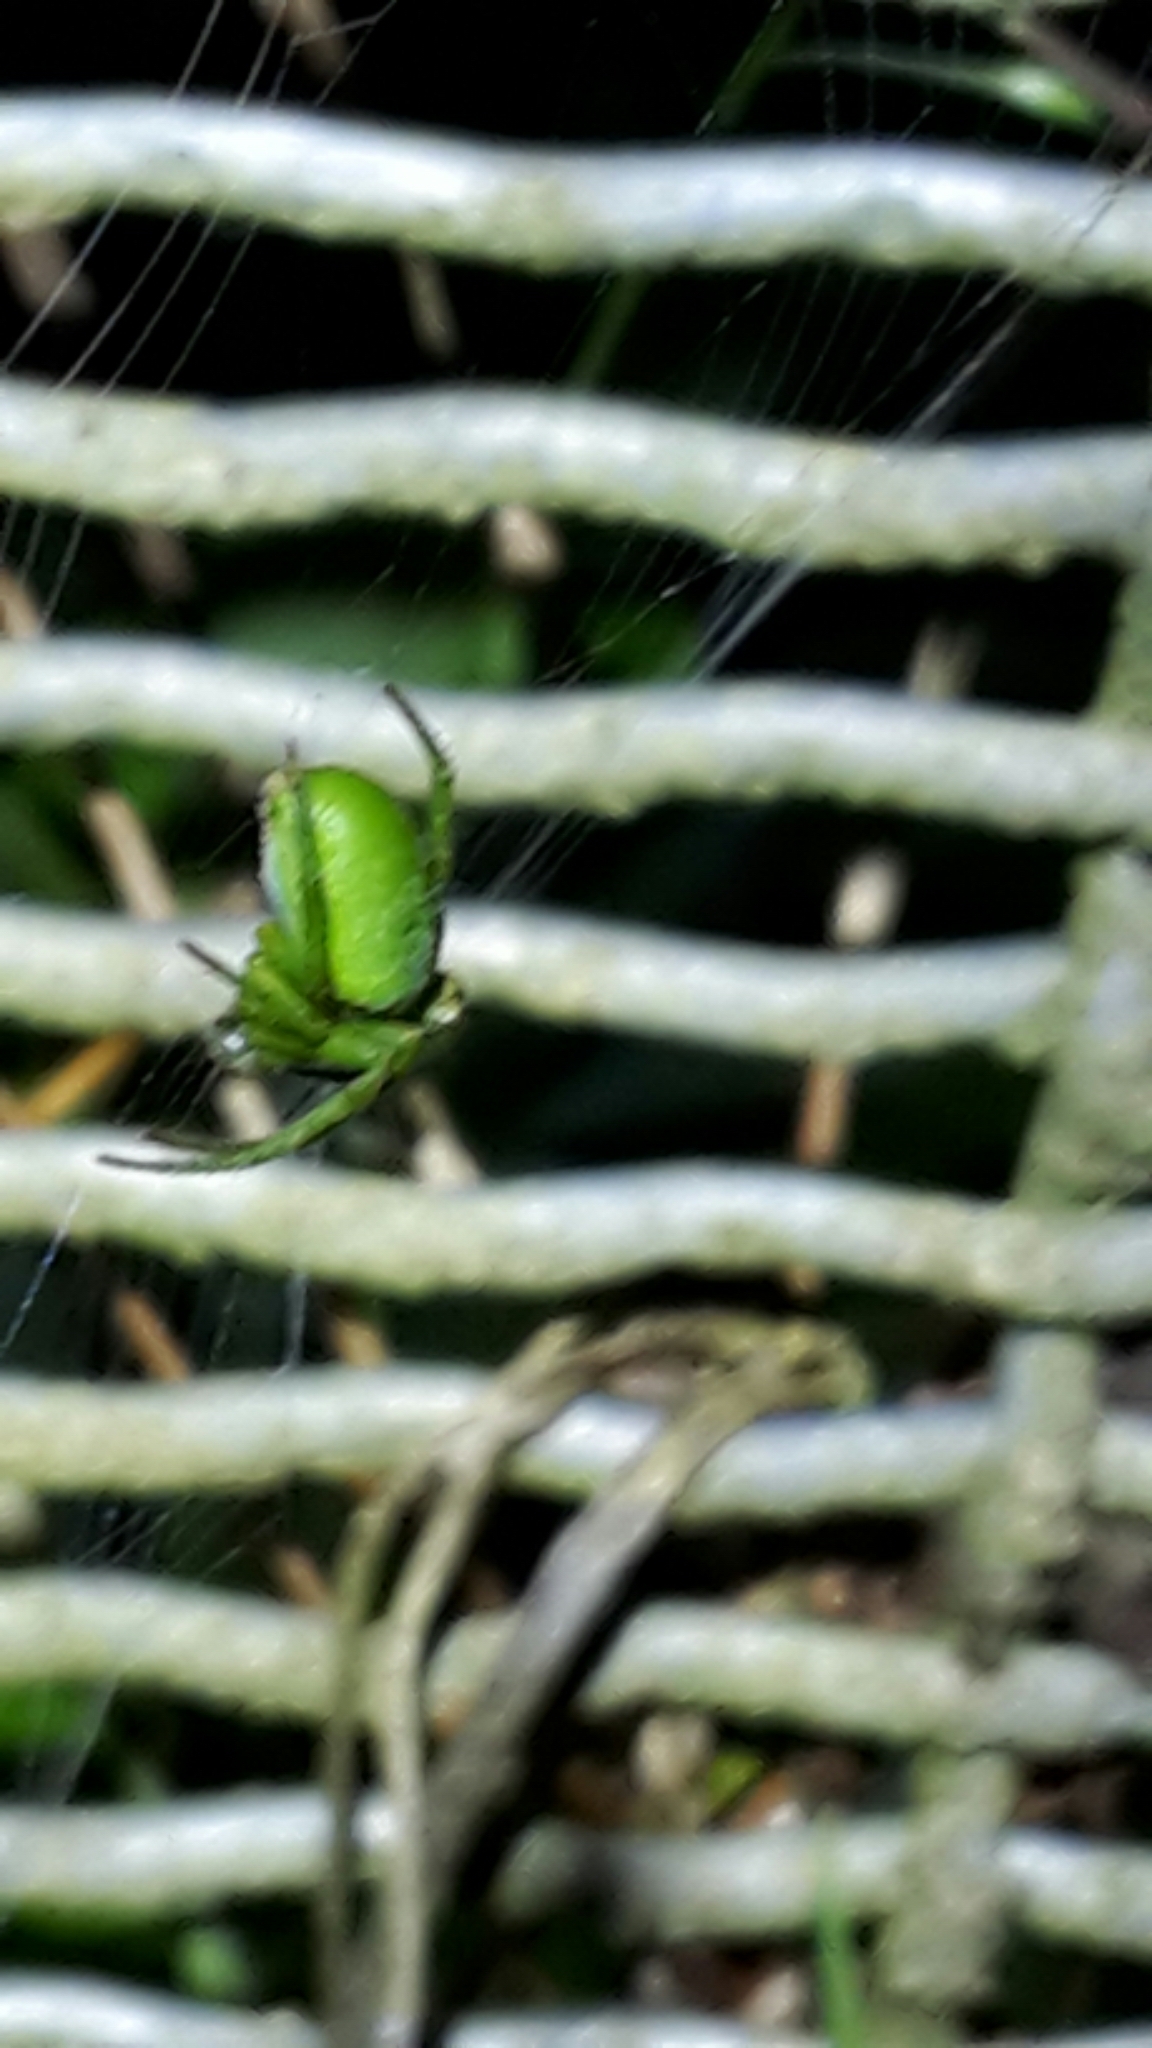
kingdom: Animalia
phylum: Arthropoda
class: Arachnida
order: Araneae
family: Araneidae
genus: Colaranea
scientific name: Colaranea viriditas
